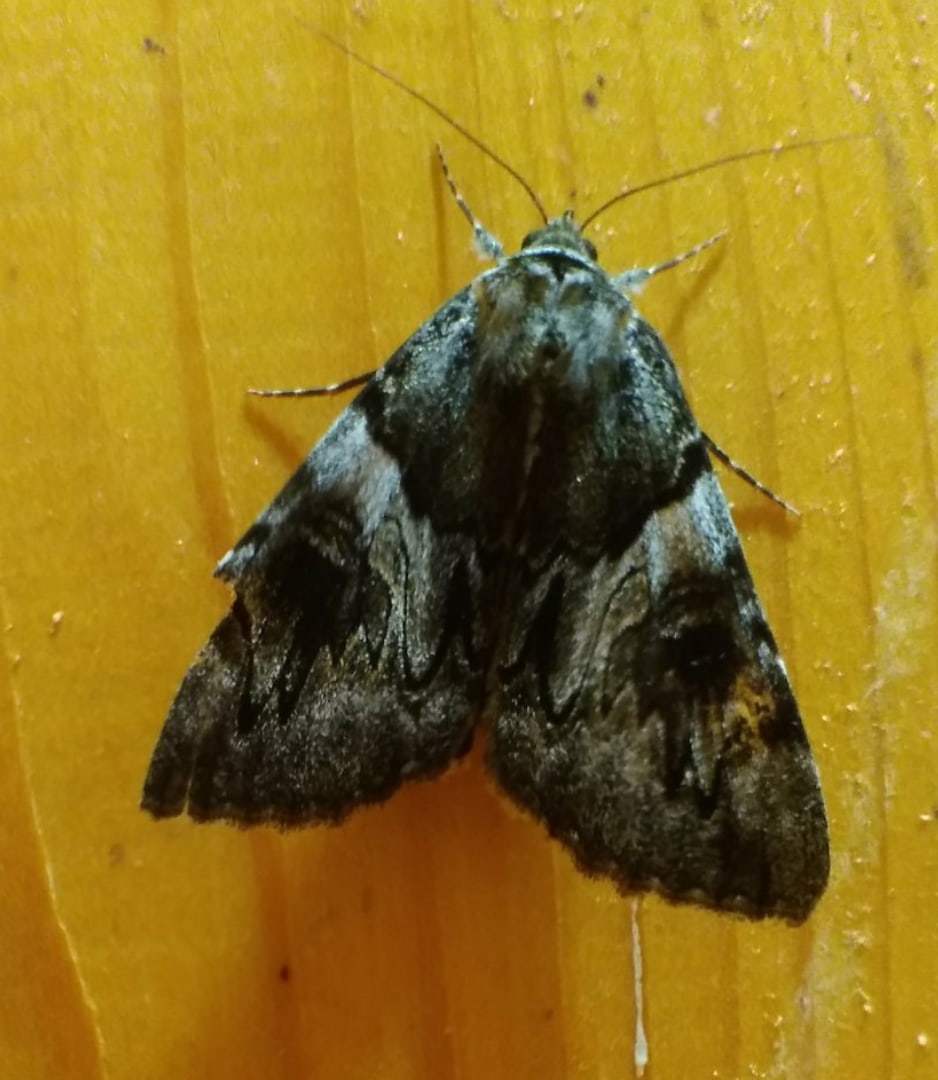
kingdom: Animalia
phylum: Arthropoda
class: Insecta
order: Lepidoptera
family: Erebidae
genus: Catocala
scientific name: Catocala fulminea
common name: Yellow bands underwing
